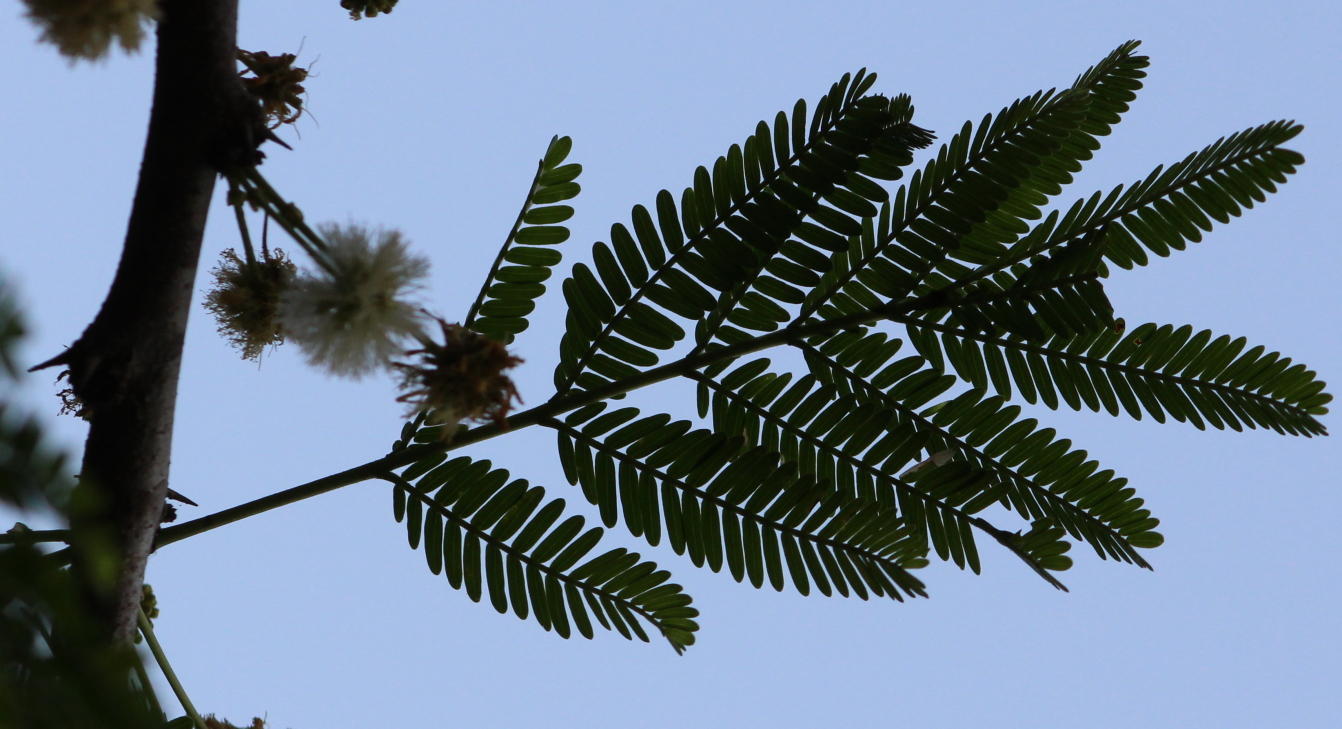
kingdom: Plantae
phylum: Tracheophyta
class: Magnoliopsida
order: Fabales
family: Fabaceae
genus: Vachellia
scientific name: Vachellia robusta
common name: Ankle thorn
